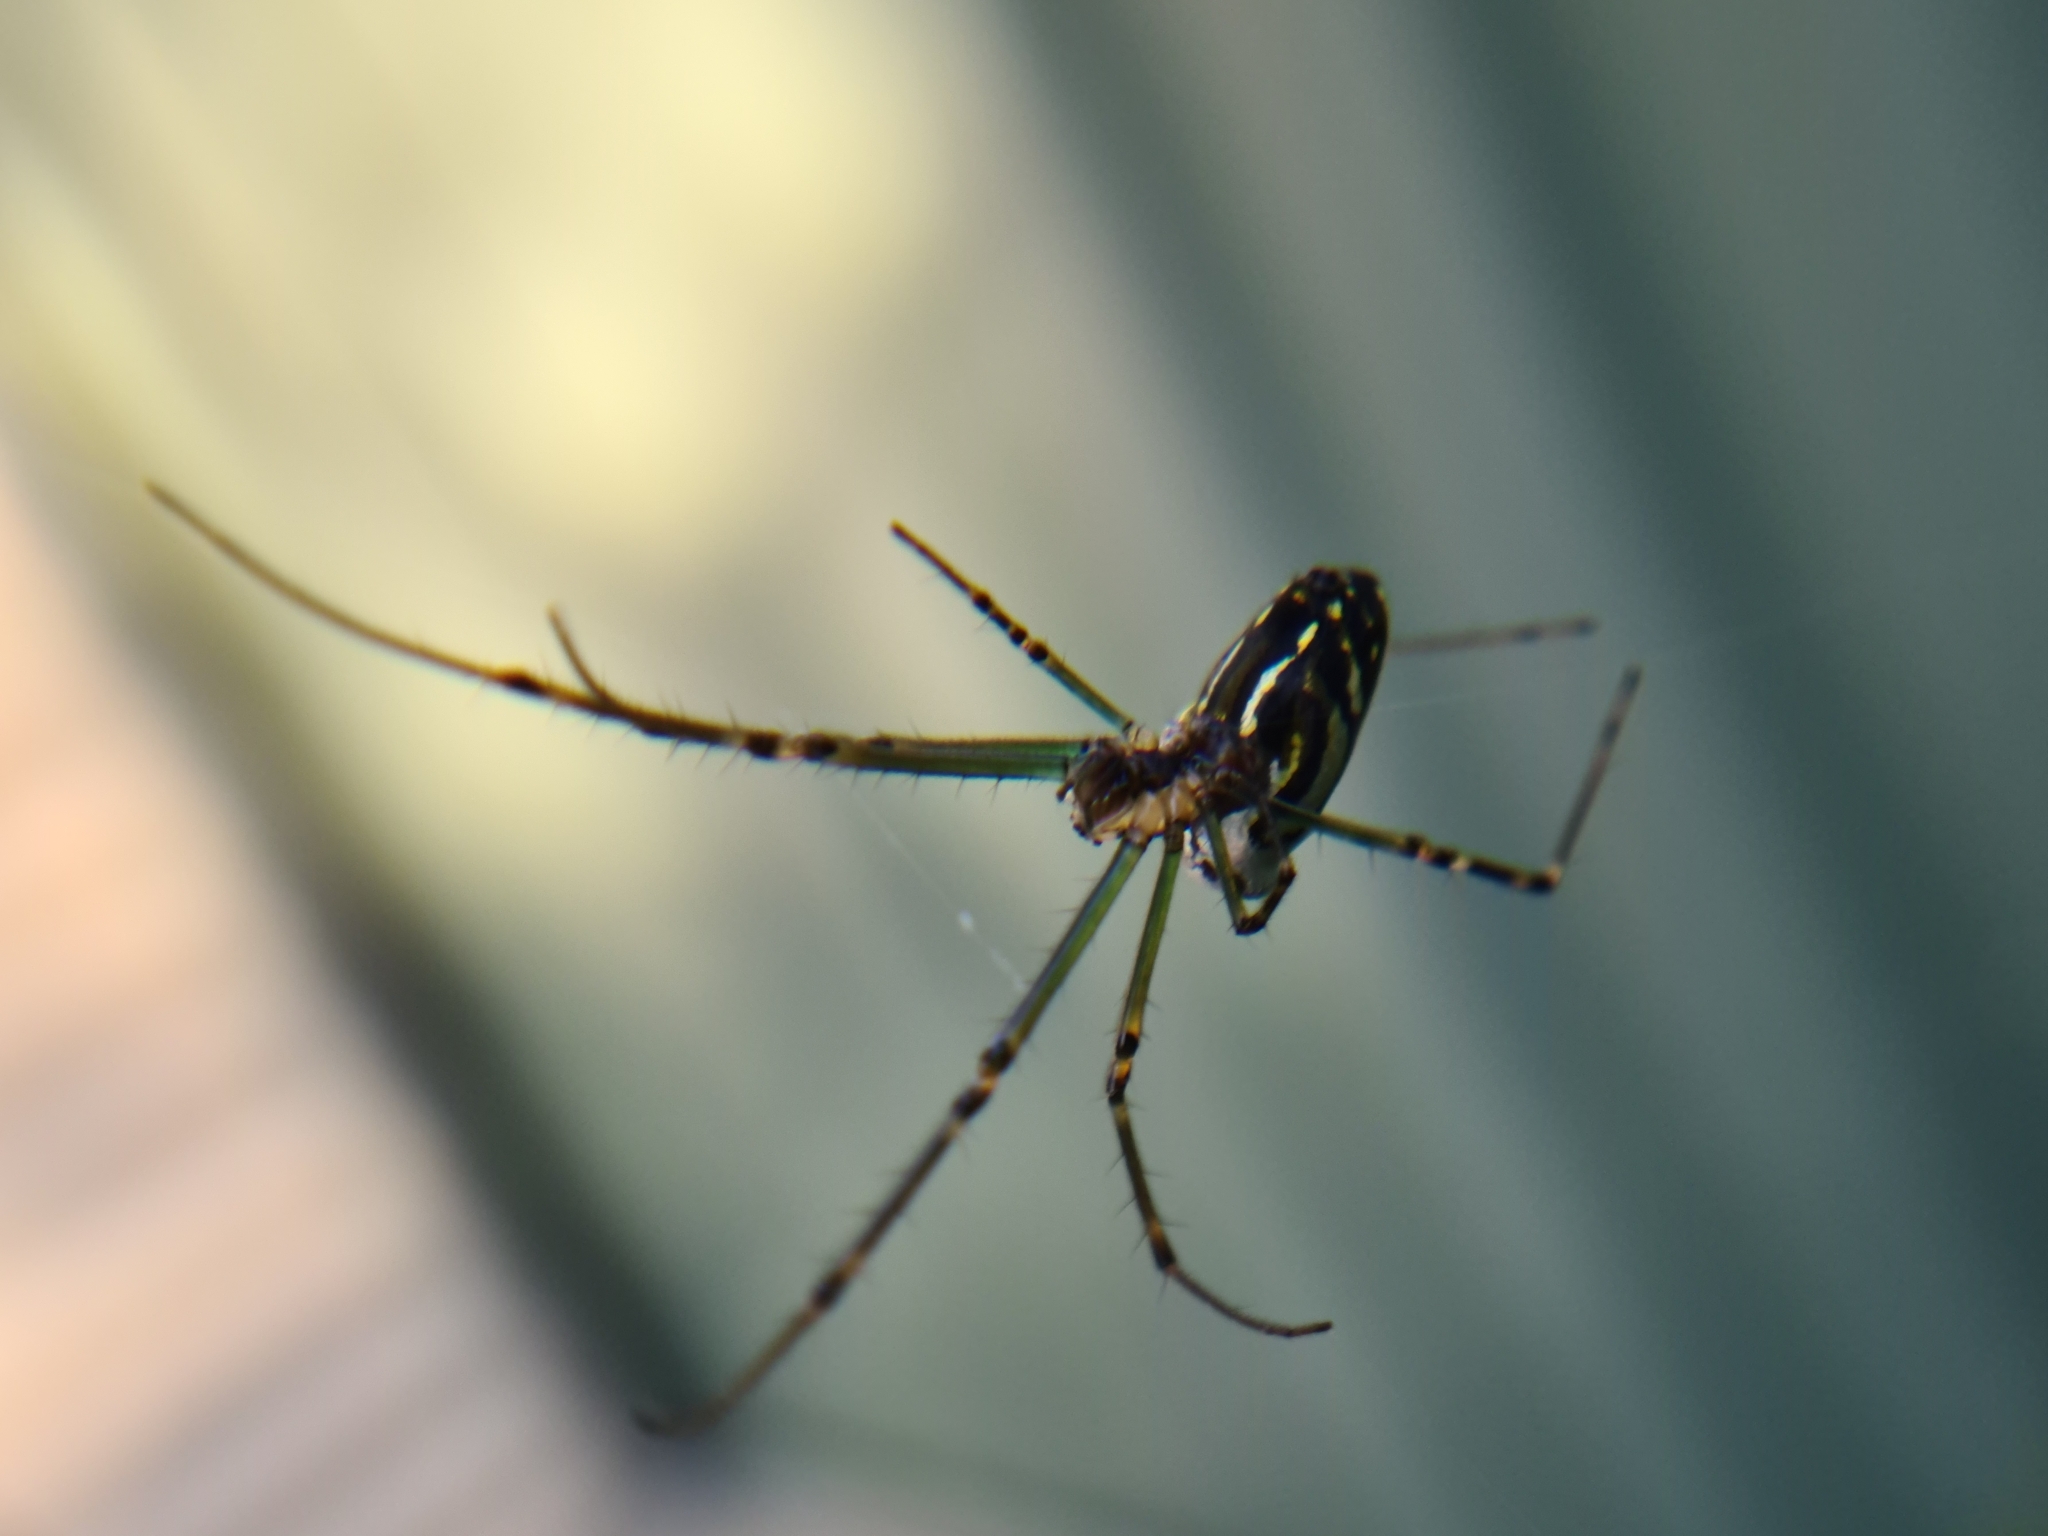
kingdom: Animalia
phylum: Arthropoda
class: Arachnida
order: Araneae
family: Tetragnathidae
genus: Leucauge
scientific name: Leucauge dromedaria
